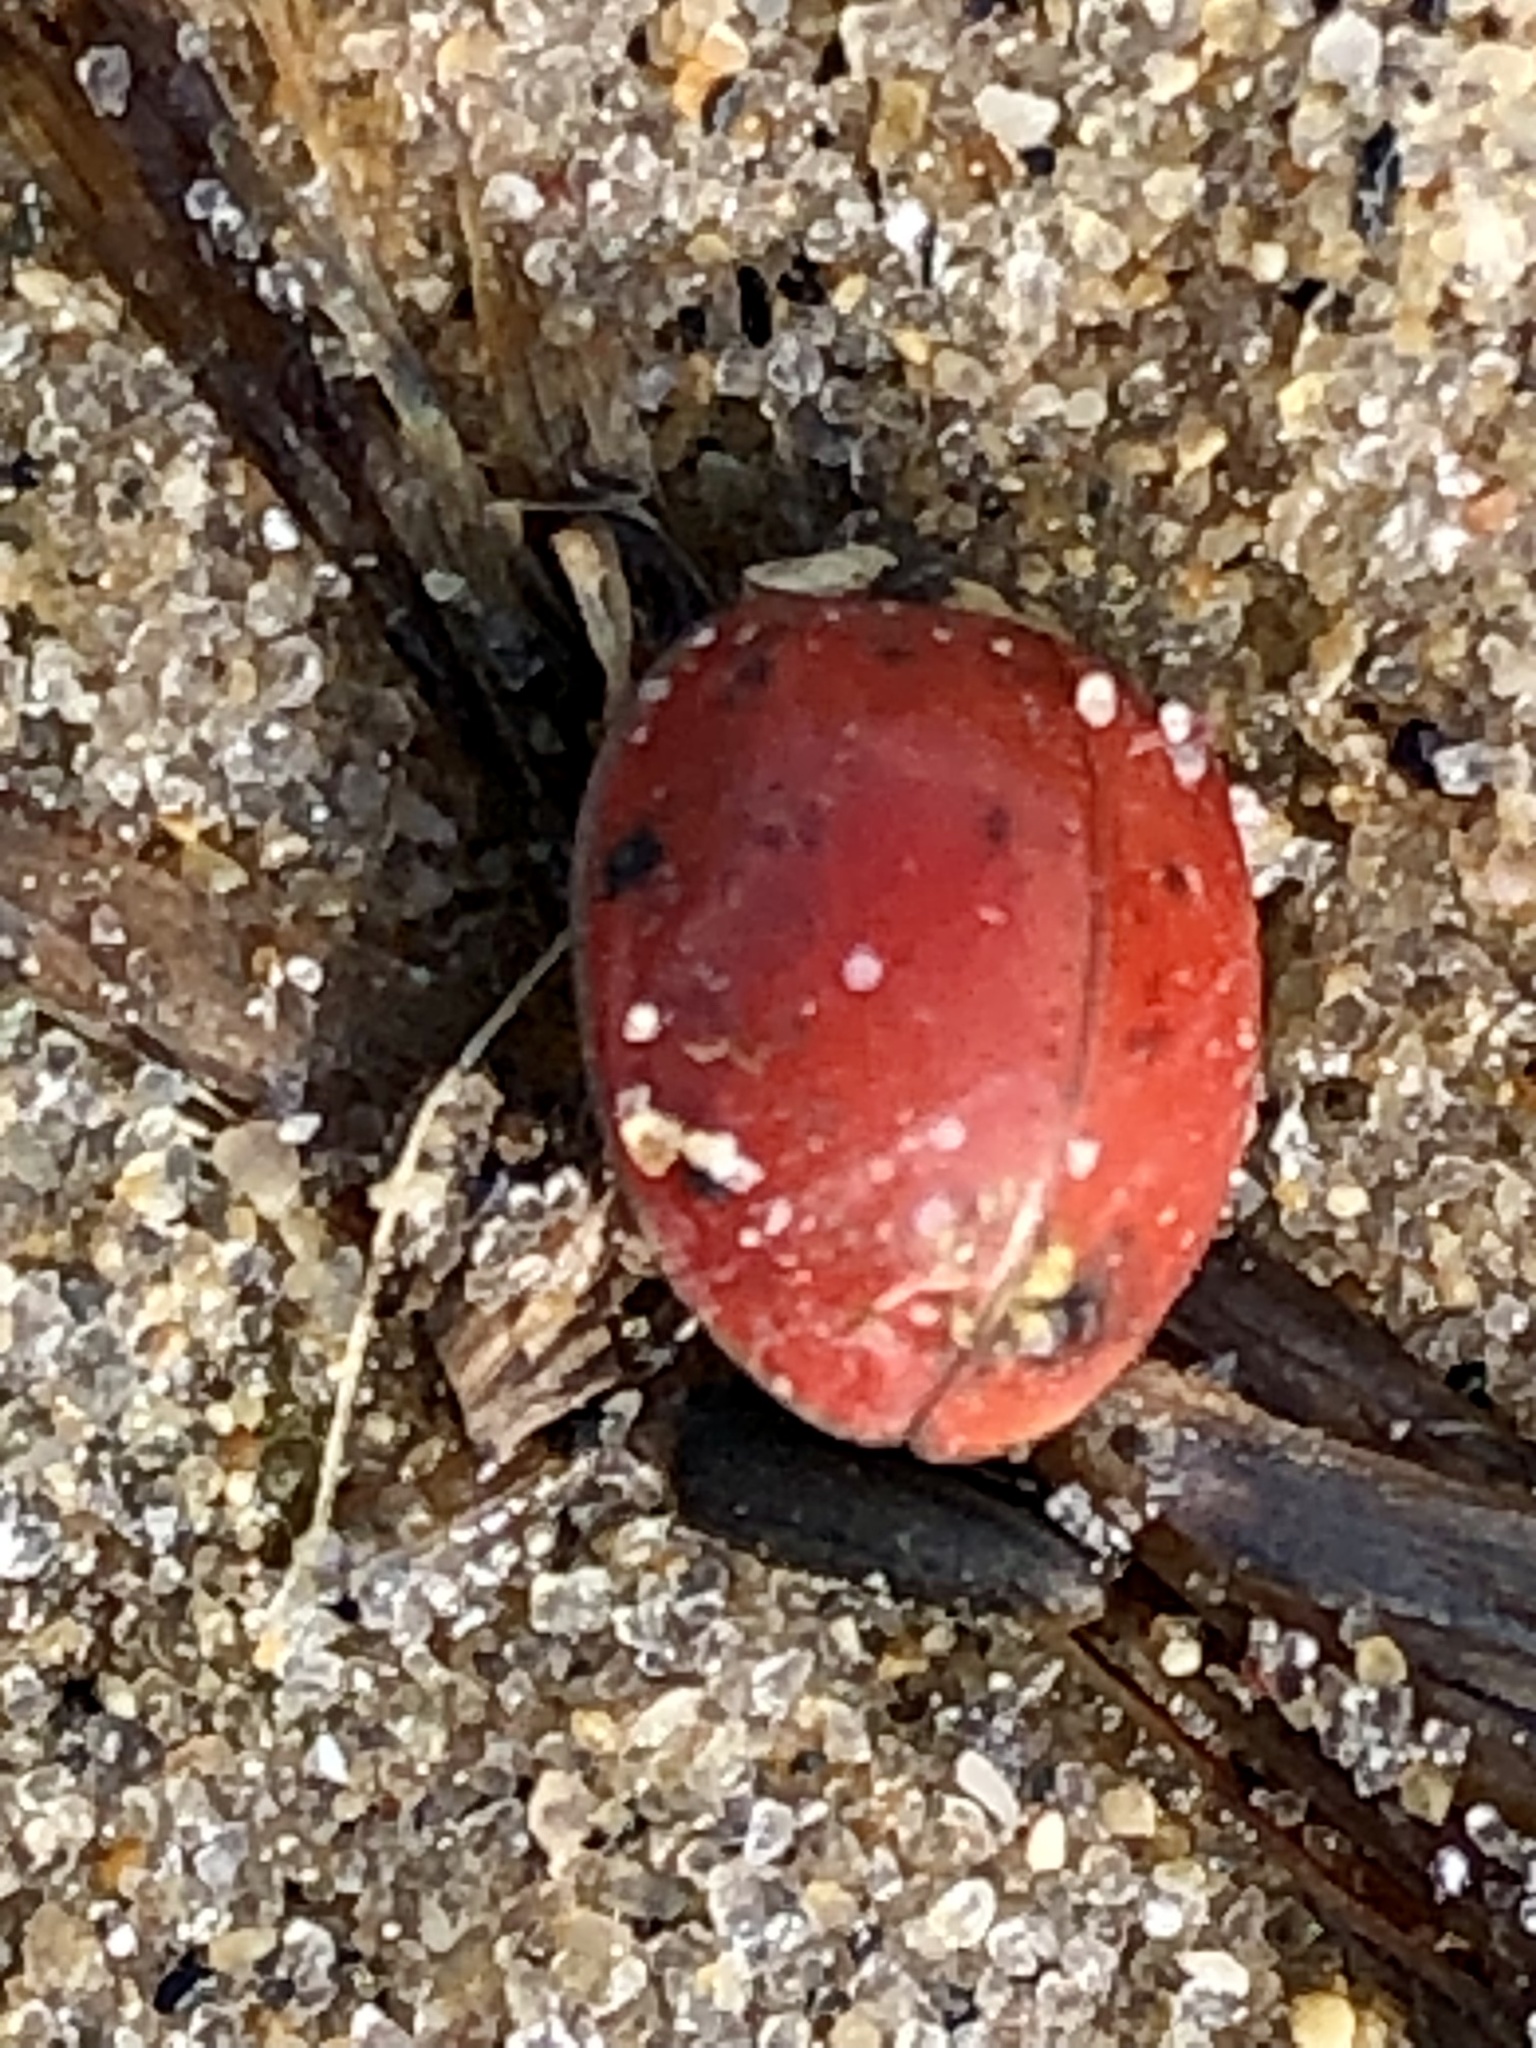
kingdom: Animalia
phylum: Arthropoda
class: Insecta
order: Coleoptera
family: Coccinellidae
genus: Harmonia
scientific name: Harmonia axyridis
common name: Harlequin ladybird
